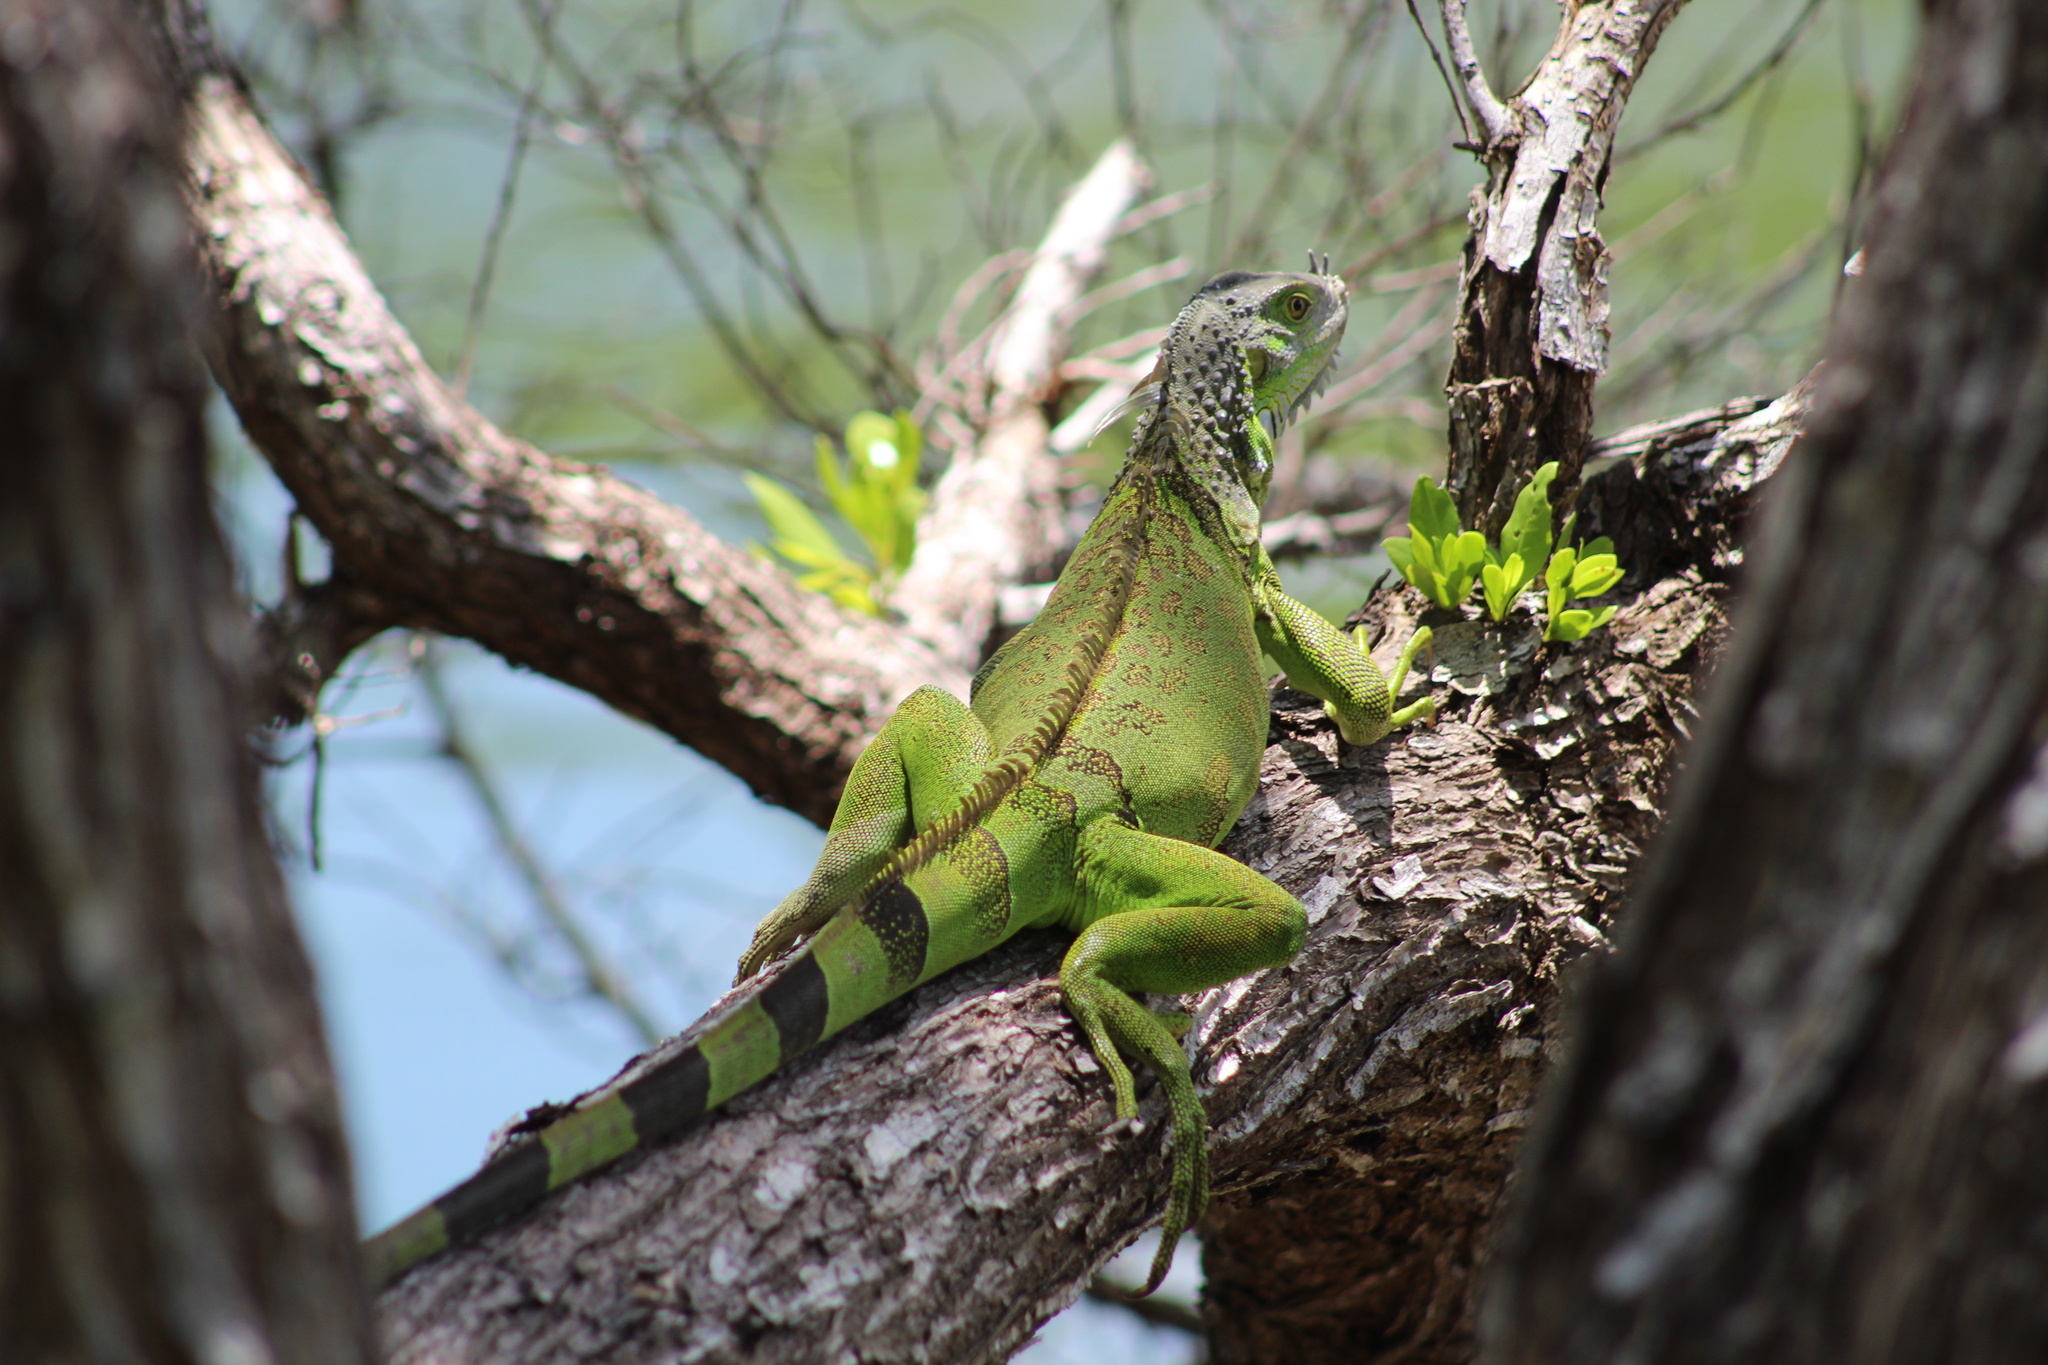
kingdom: Animalia
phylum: Chordata
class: Squamata
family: Iguanidae
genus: Iguana
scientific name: Iguana iguana
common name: Green iguana
